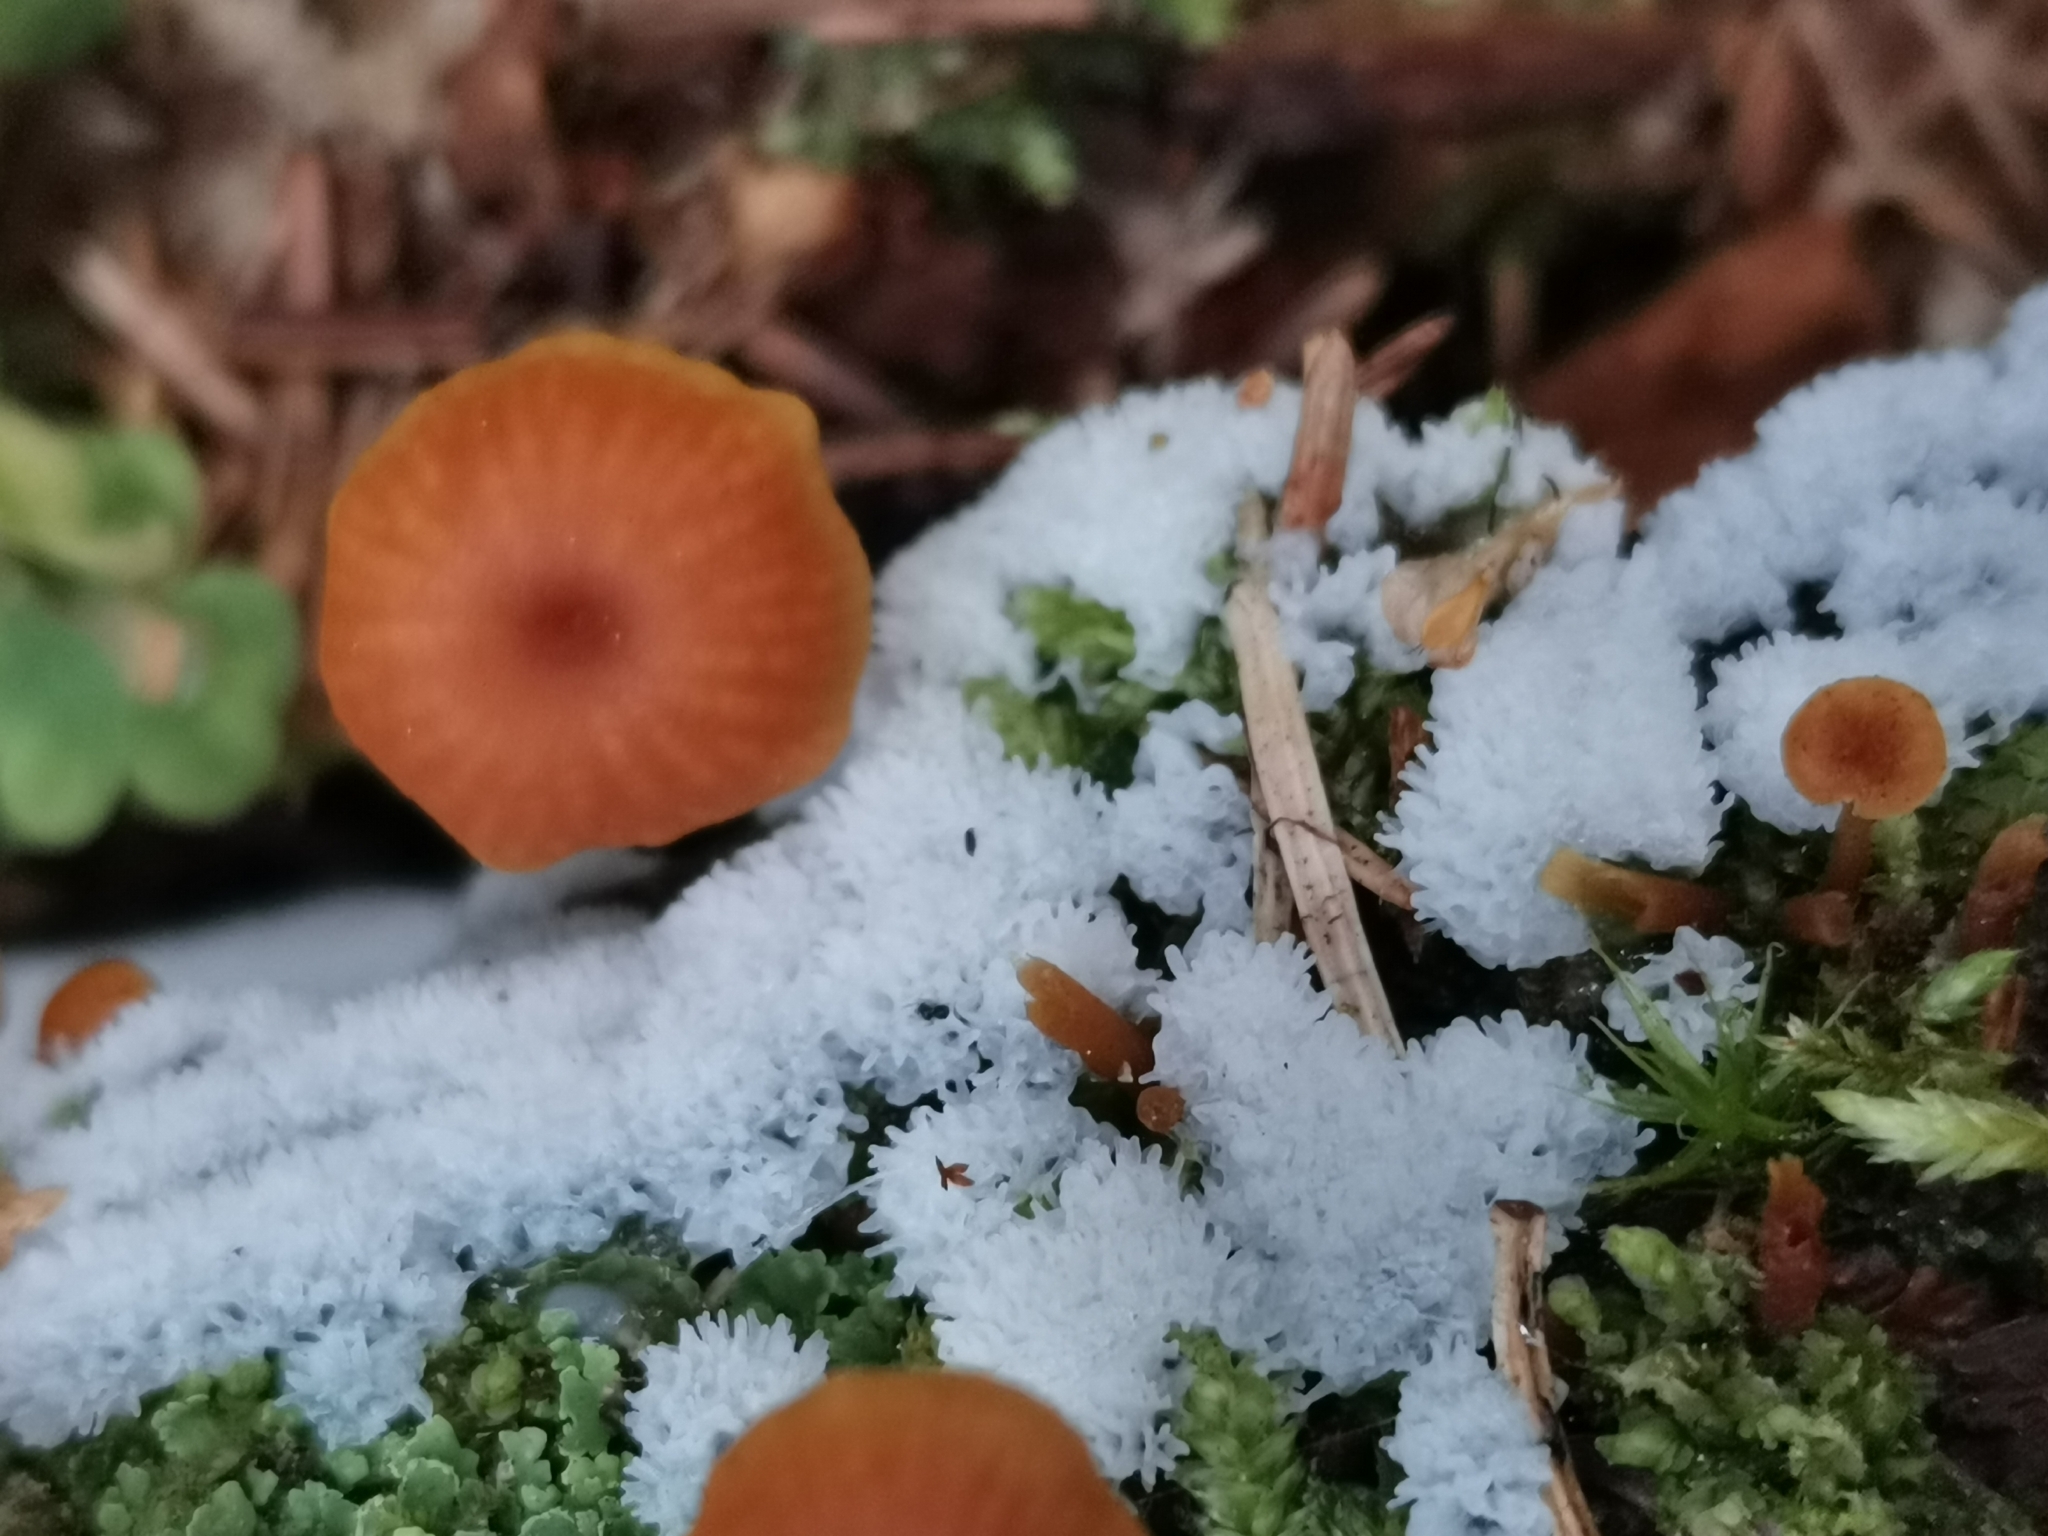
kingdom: Protozoa
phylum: Mycetozoa
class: Protosteliomycetes
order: Ceratiomyxales
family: Ceratiomyxaceae
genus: Ceratiomyxa
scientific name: Ceratiomyxa fruticulosa
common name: Honeycomb coral slime mold
